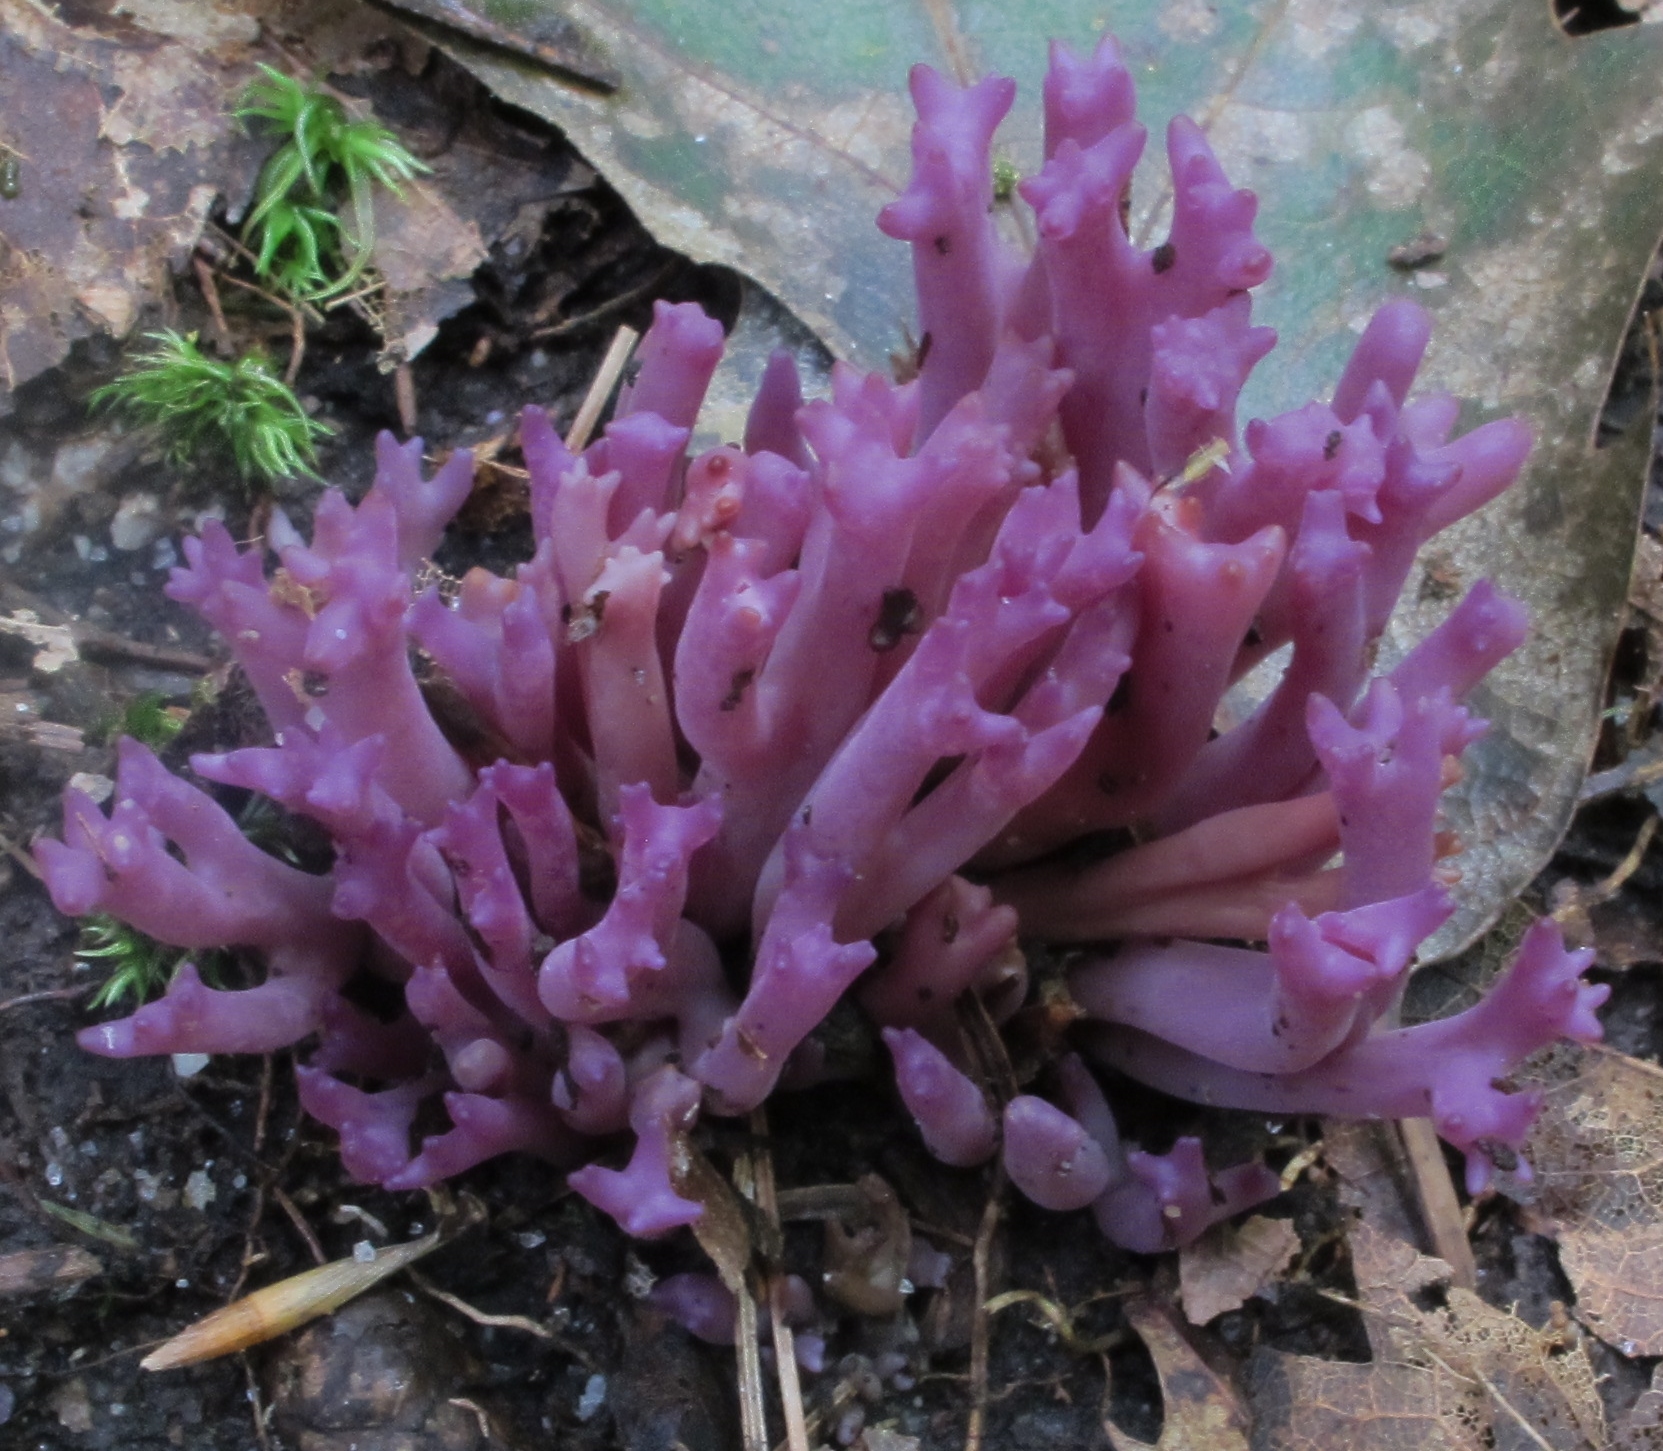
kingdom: Fungi
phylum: Basidiomycota
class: Agaricomycetes
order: Agaricales
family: Clavariaceae
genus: Clavaria
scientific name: Clavaria zollingeri
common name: Violet coral
